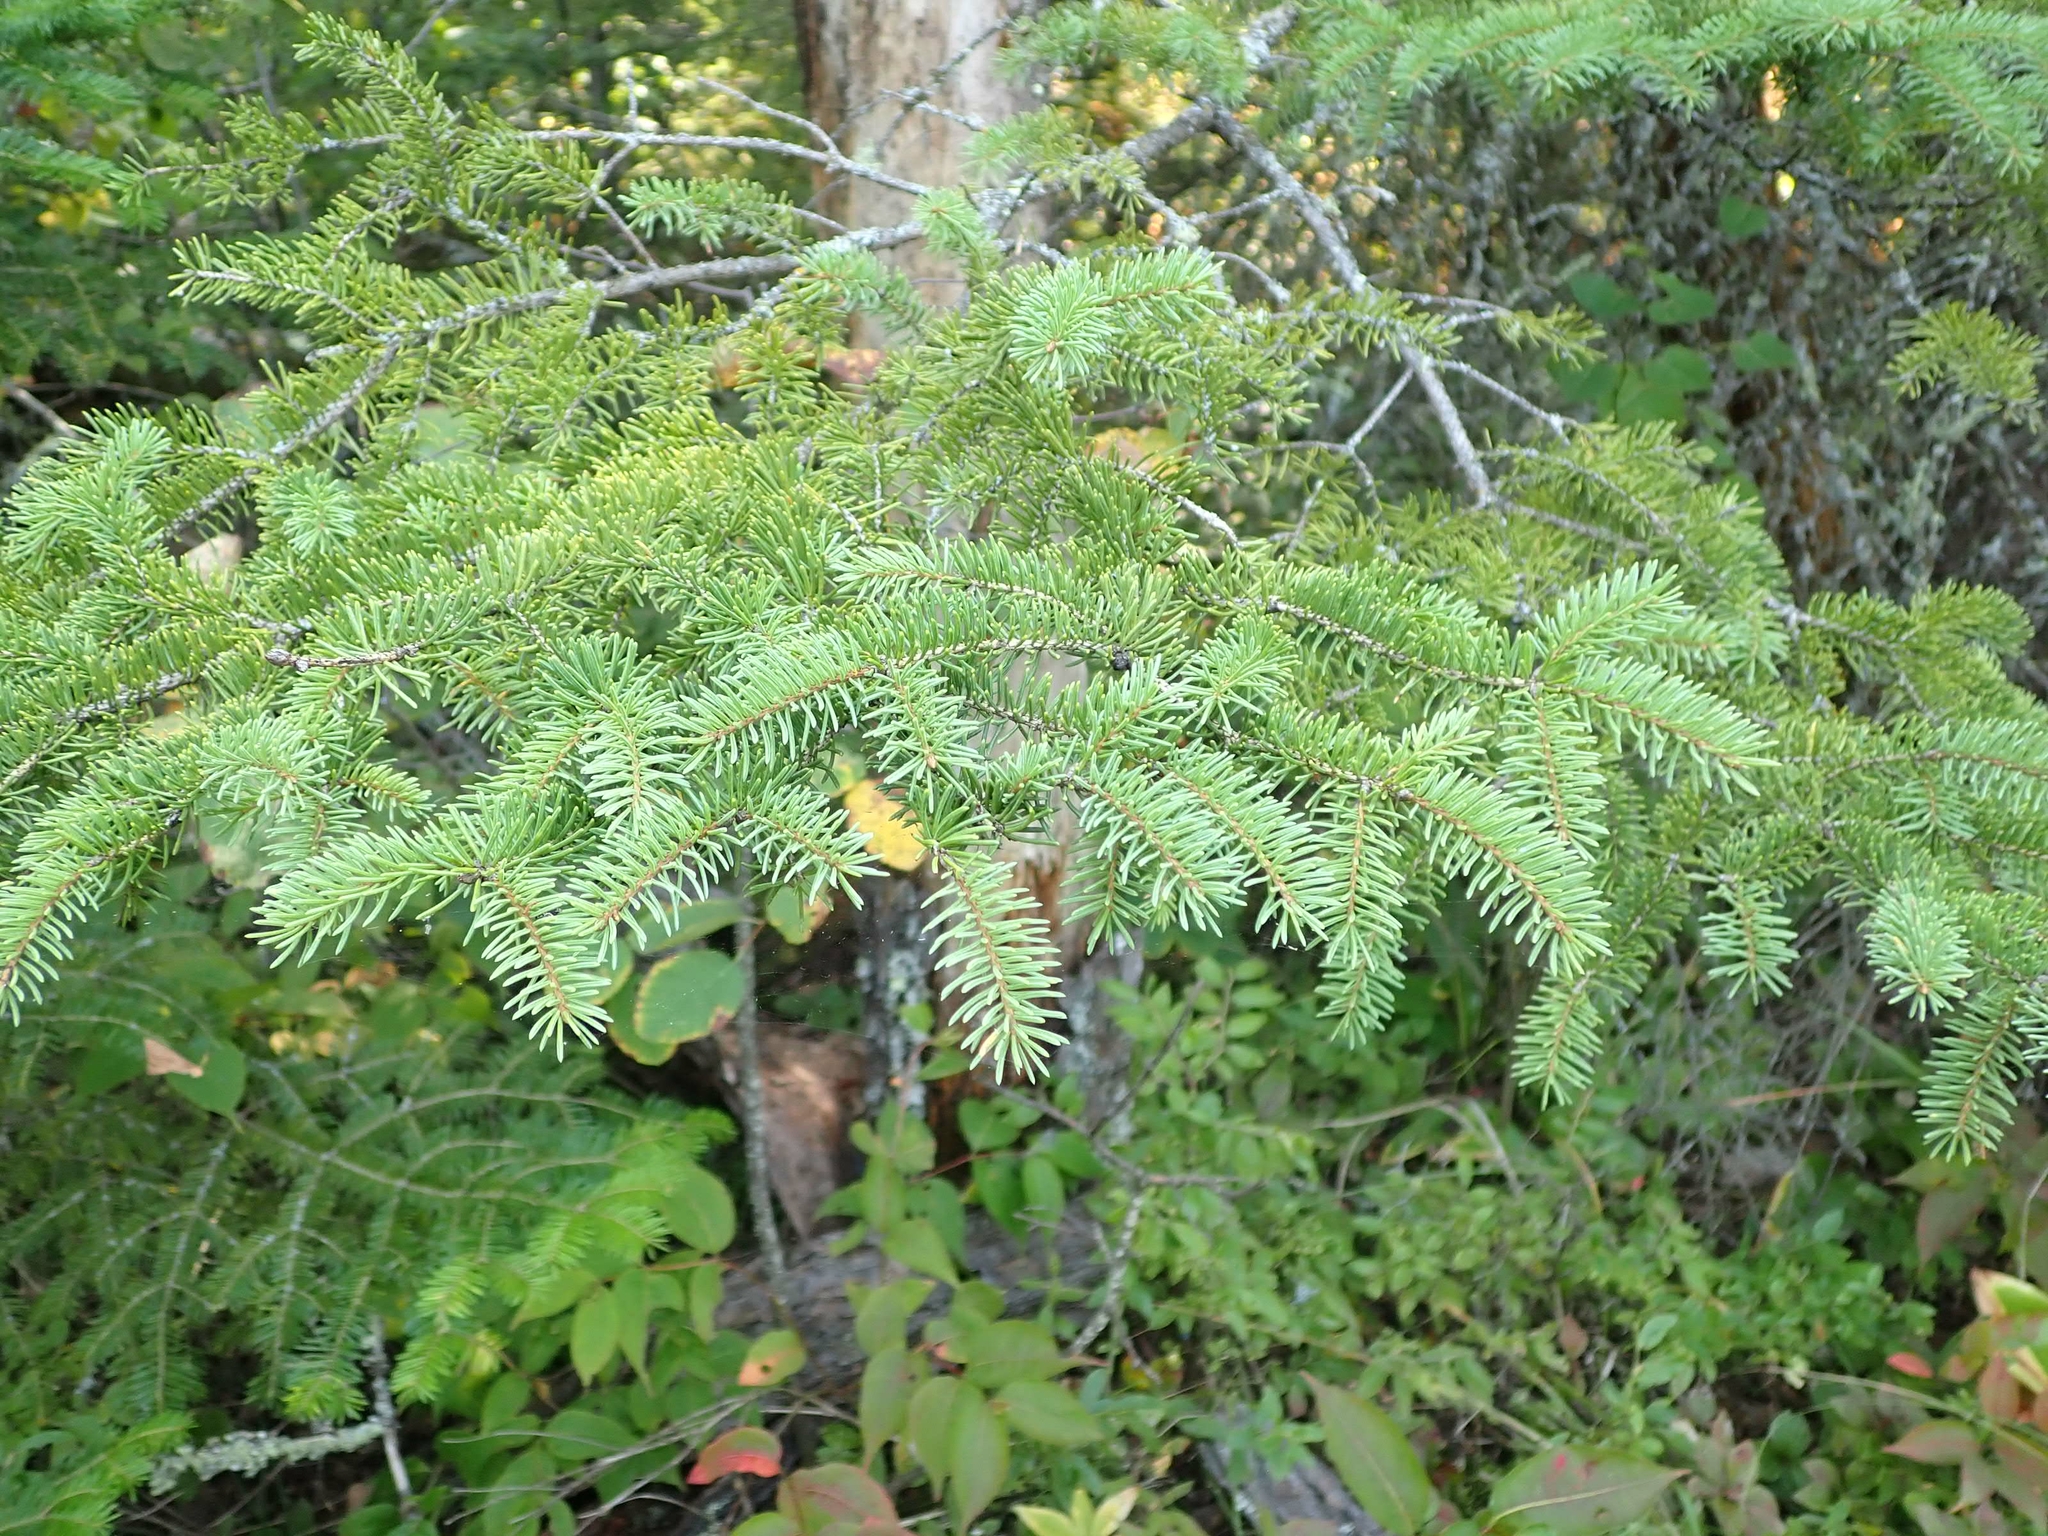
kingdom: Plantae
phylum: Tracheophyta
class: Pinopsida
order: Pinales
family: Pinaceae
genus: Picea
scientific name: Picea glauca
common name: White spruce
